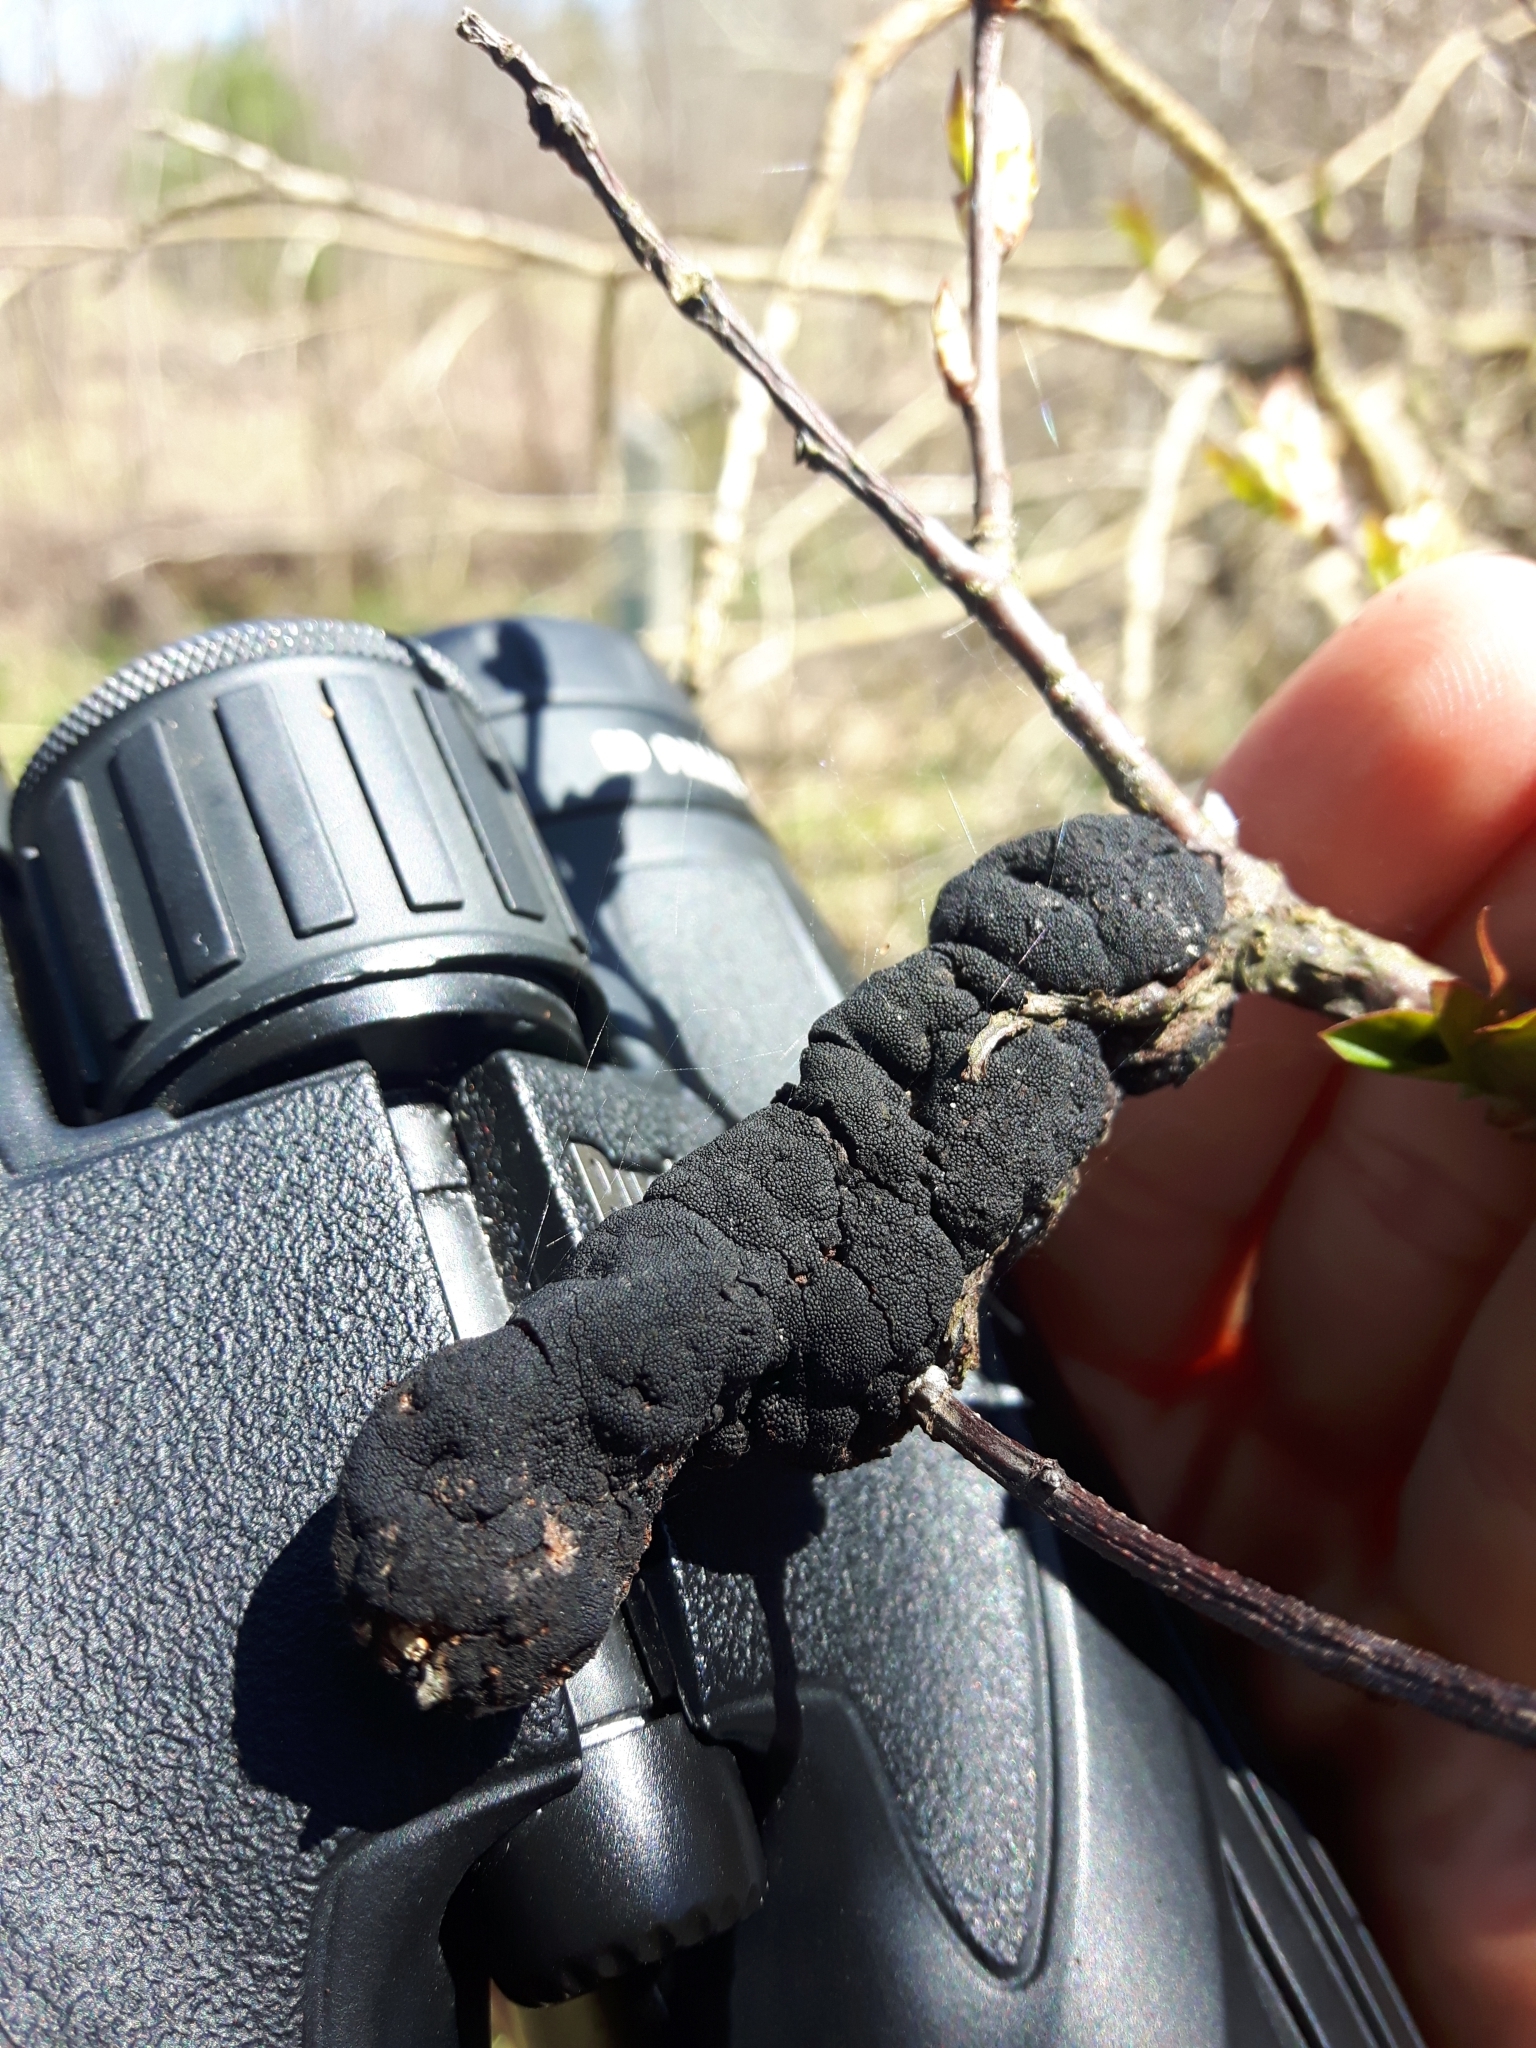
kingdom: Fungi
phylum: Ascomycota
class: Dothideomycetes
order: Venturiales
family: Venturiaceae
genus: Apiosporina
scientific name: Apiosporina morbosa
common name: Black knot
